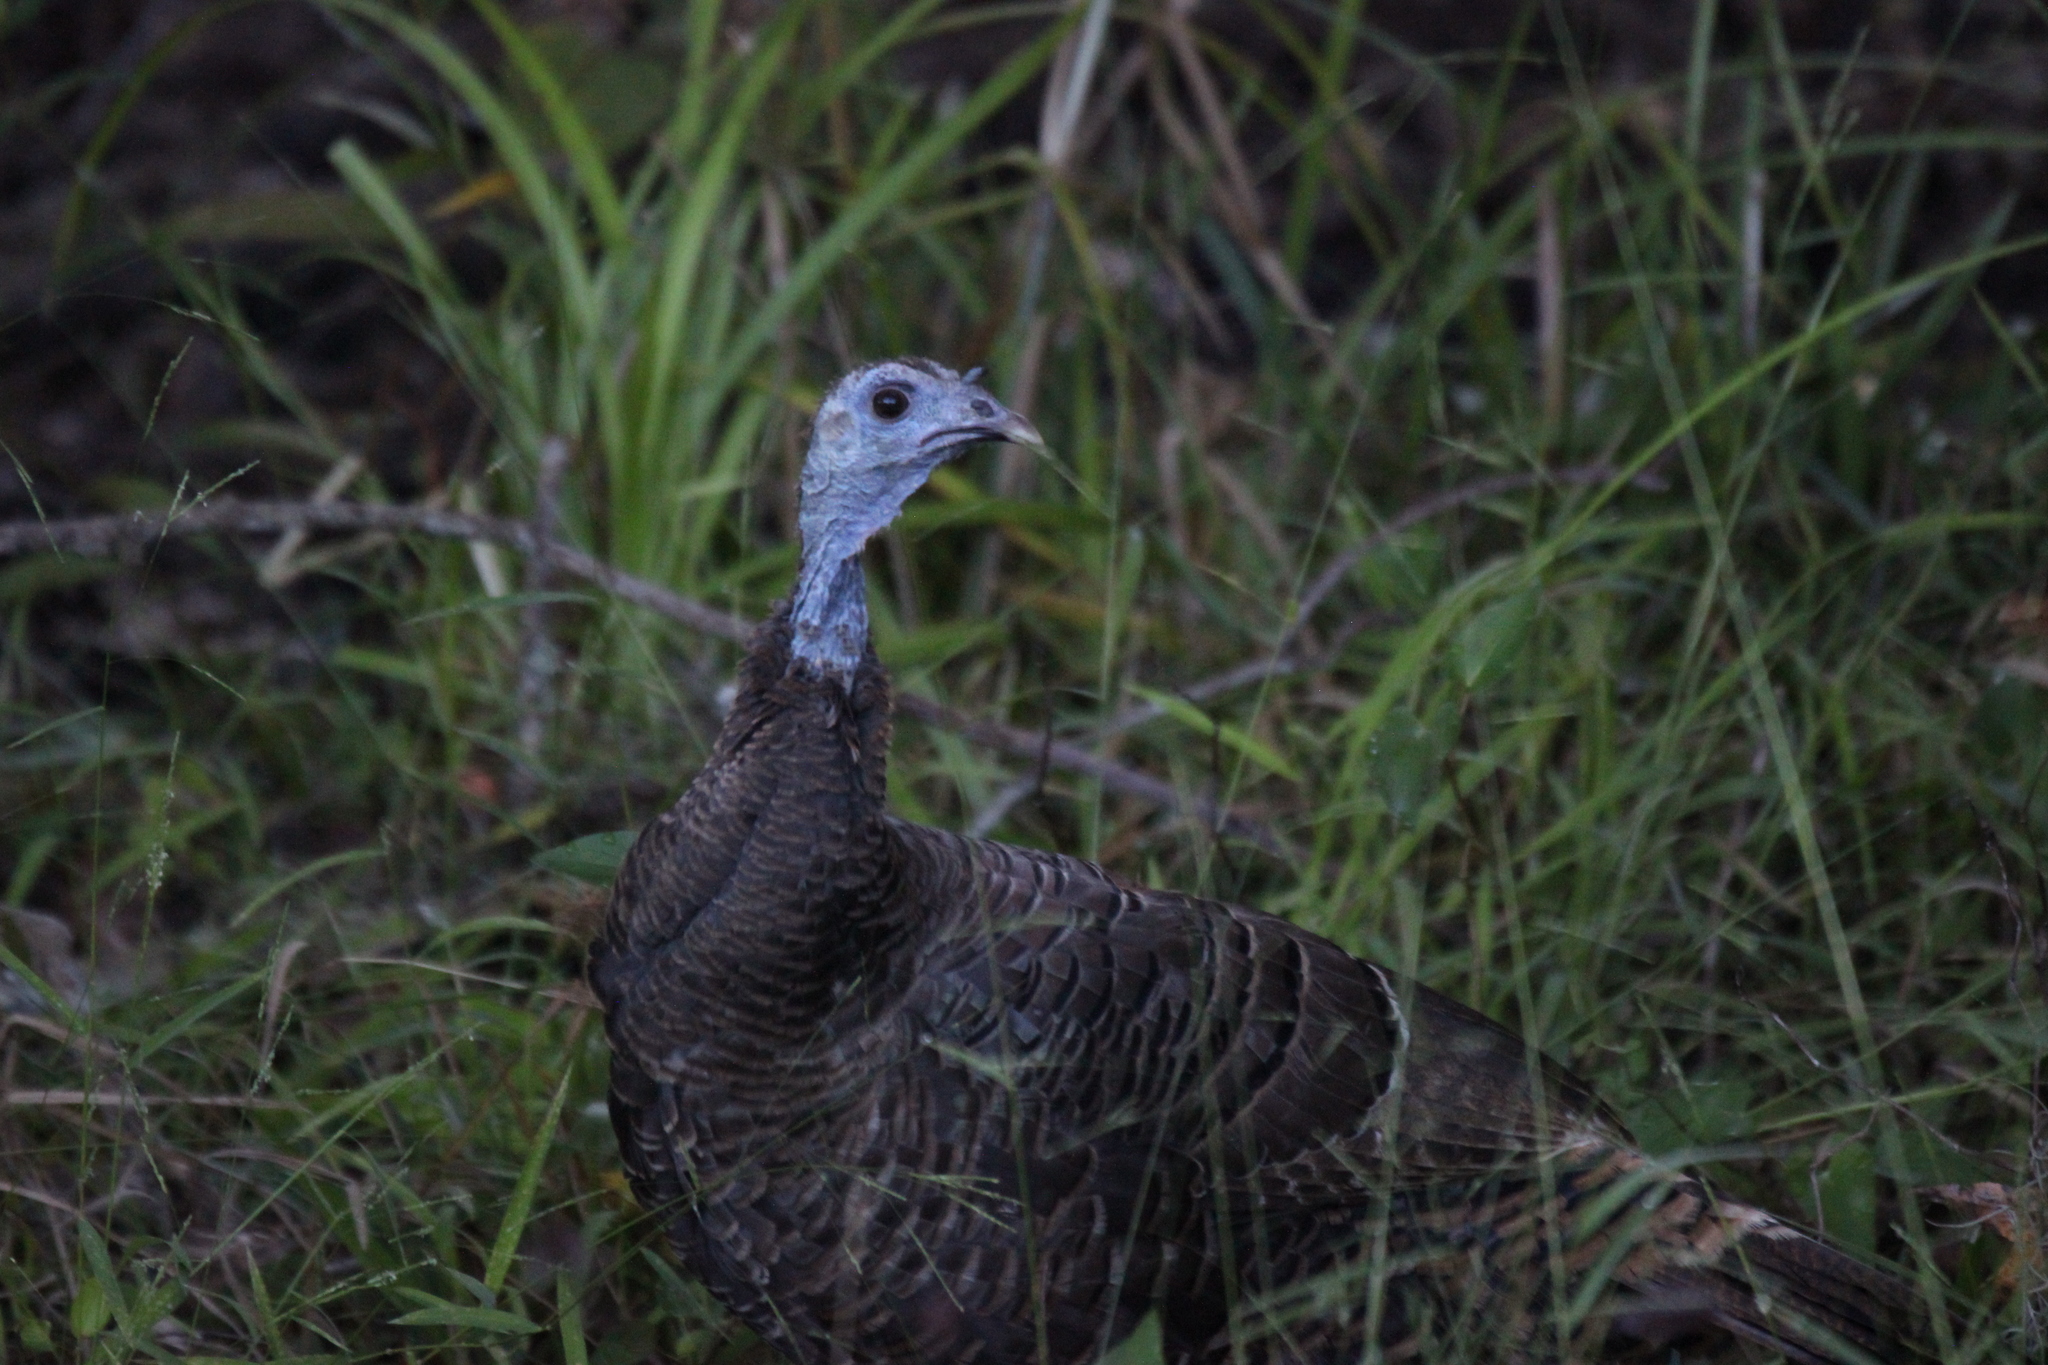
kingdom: Animalia
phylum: Chordata
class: Aves
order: Galliformes
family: Phasianidae
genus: Meleagris
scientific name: Meleagris gallopavo
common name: Wild turkey
